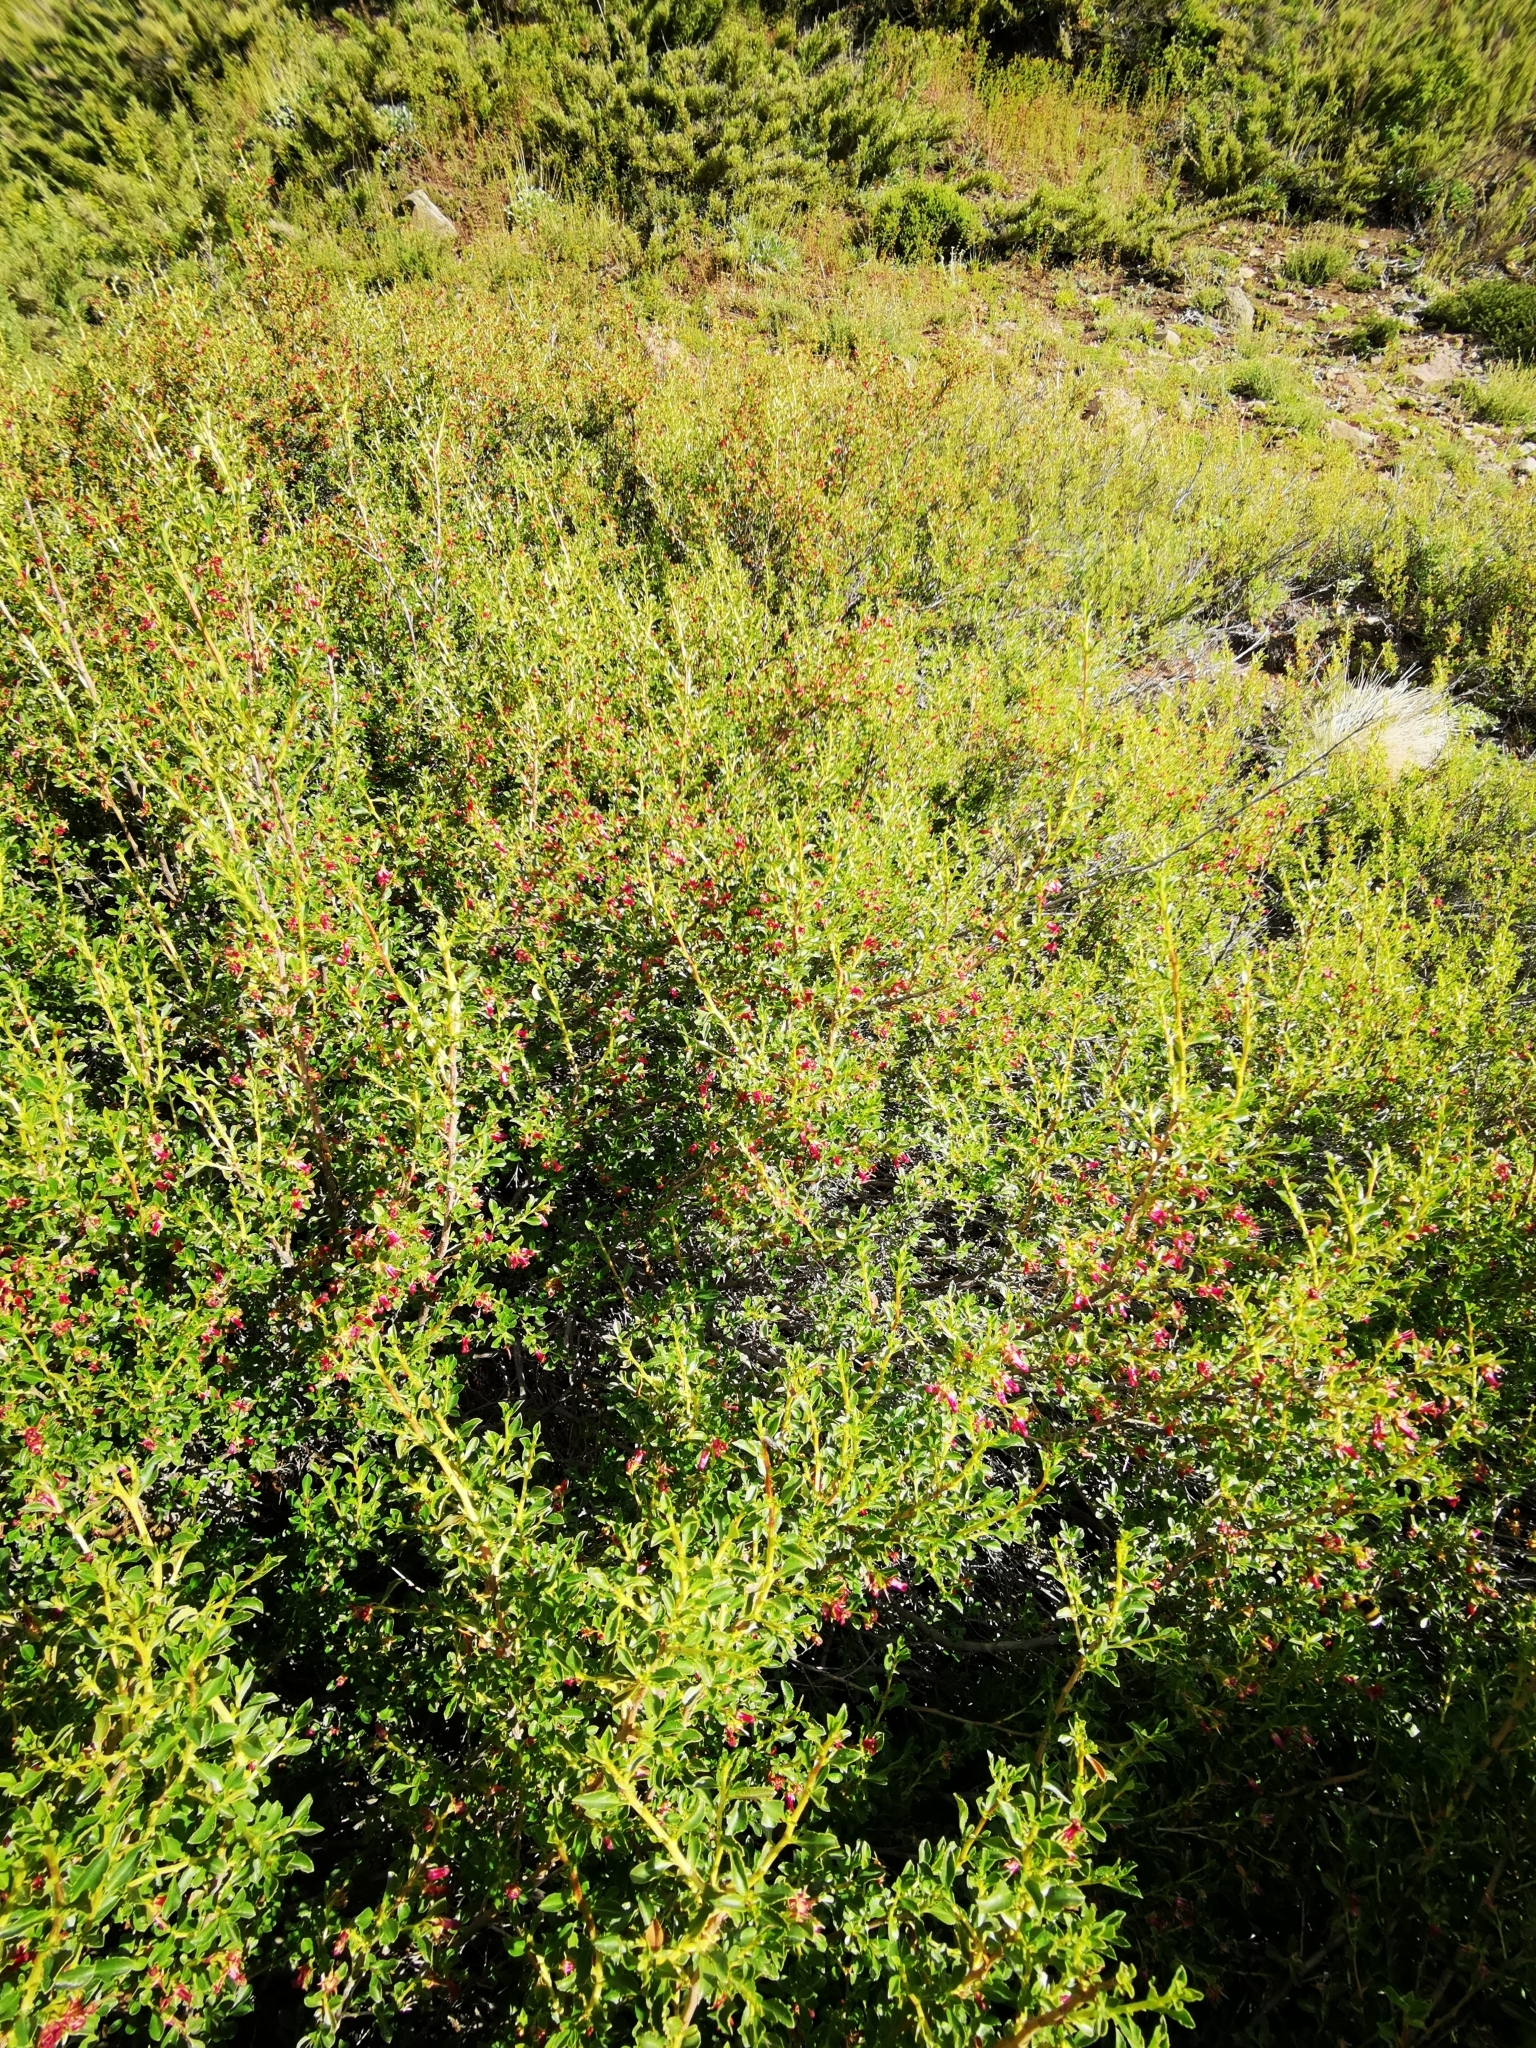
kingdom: Plantae
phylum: Tracheophyta
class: Magnoliopsida
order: Escalloniales
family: Escalloniaceae
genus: Escallonia
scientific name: Escallonia rubra
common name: Redclaws
